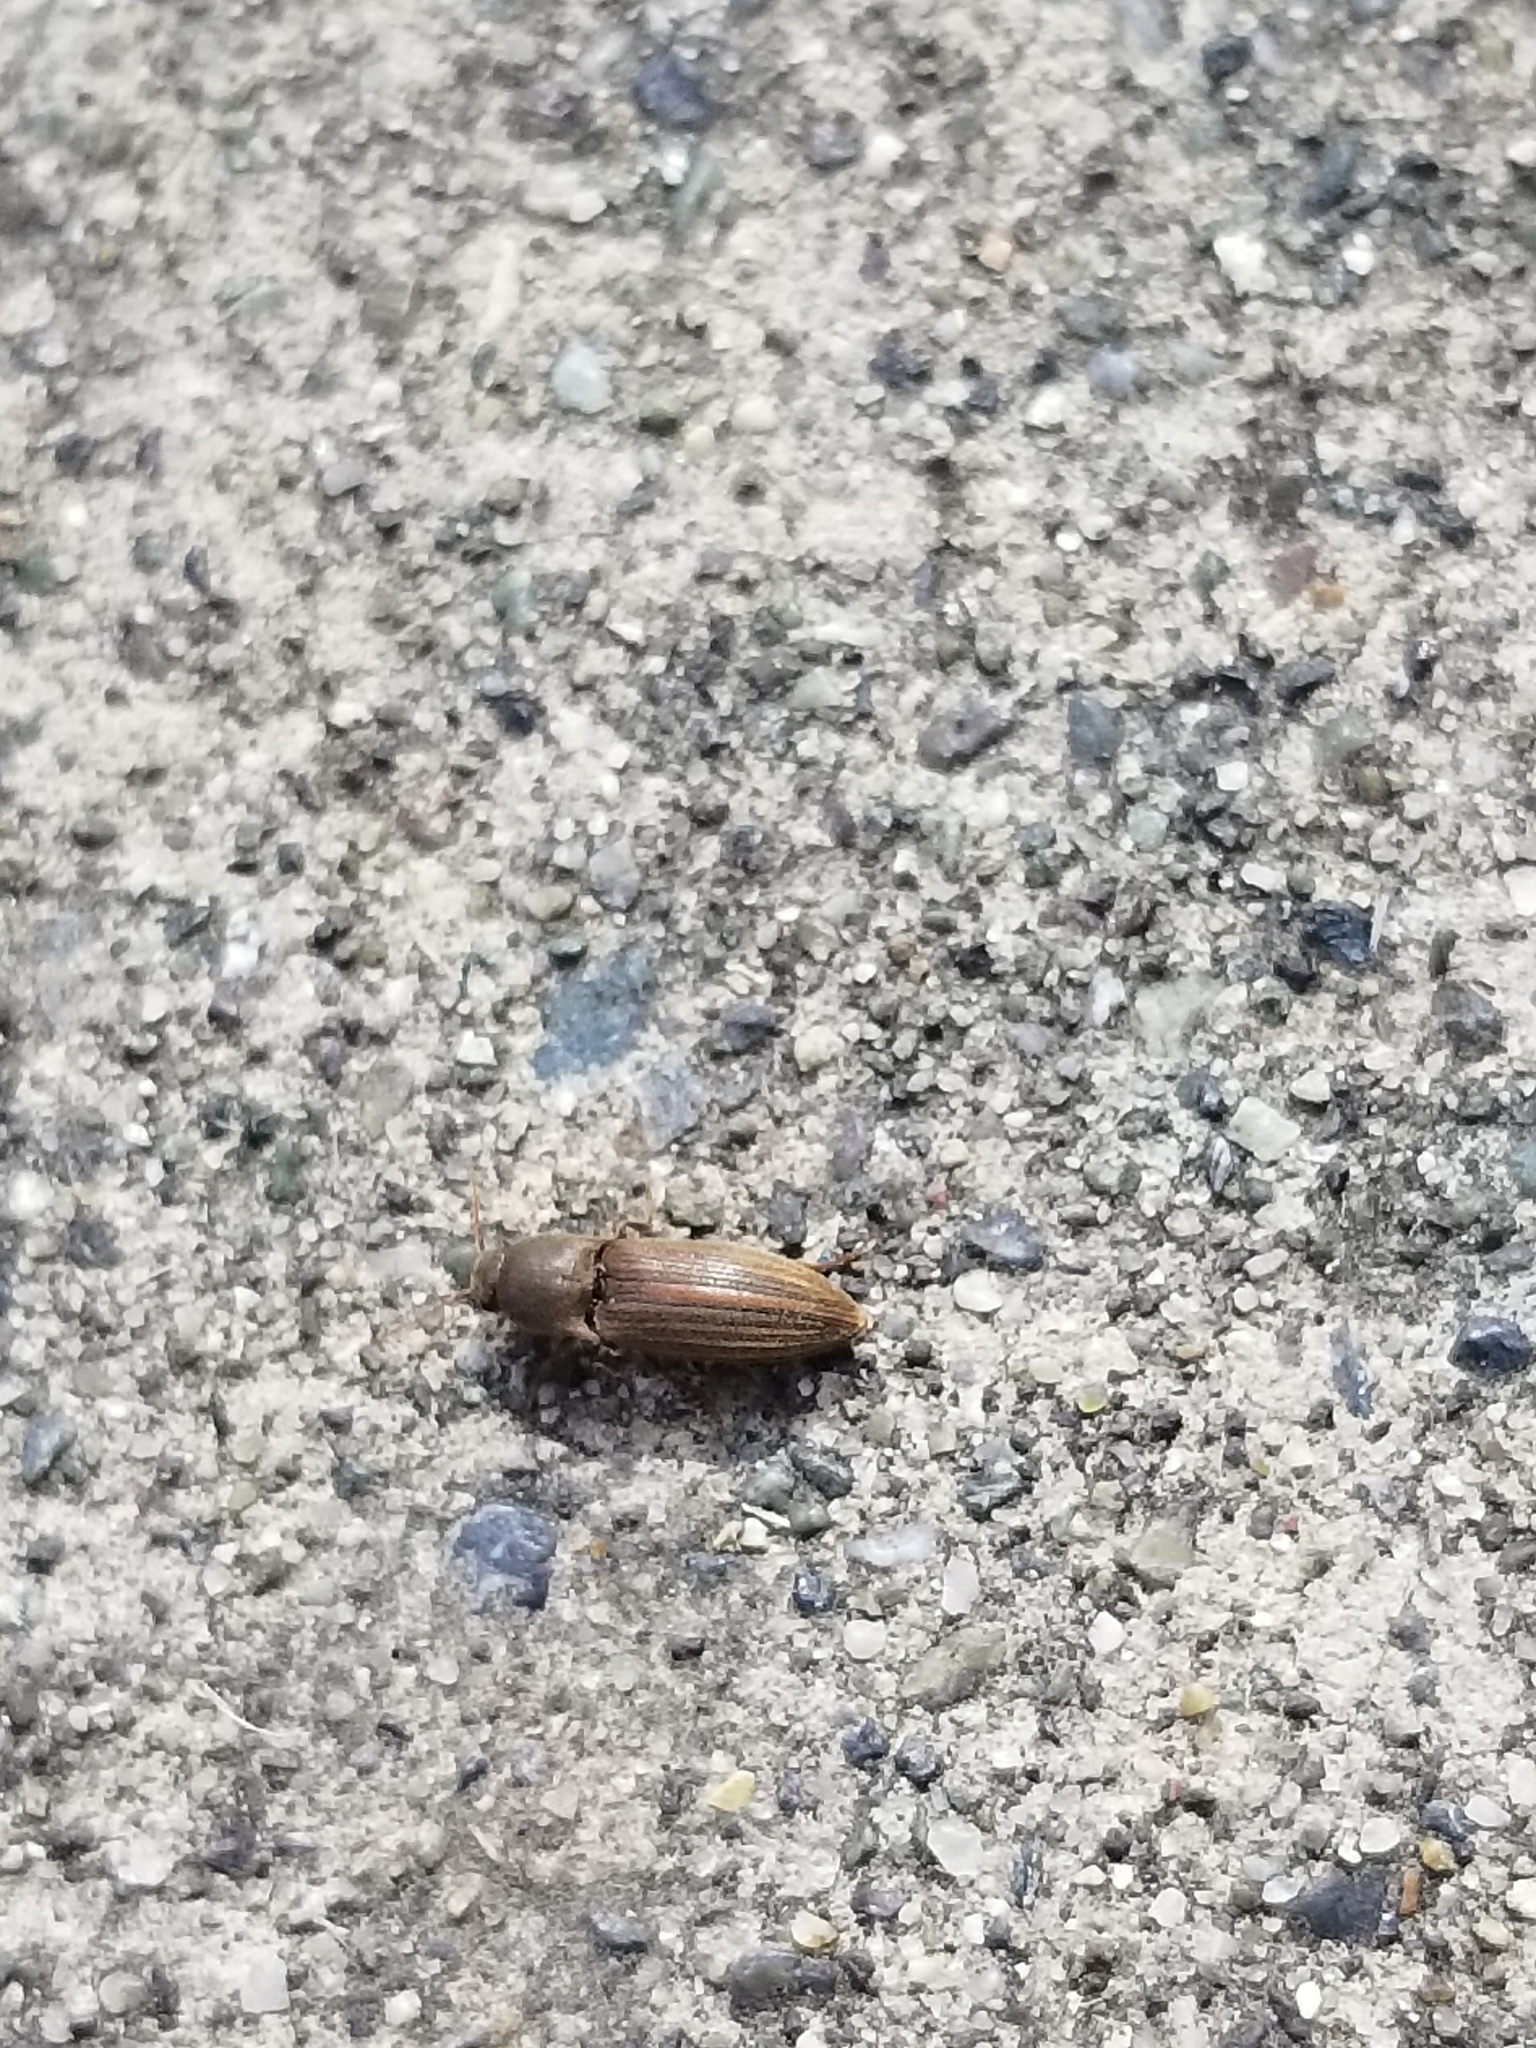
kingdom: Animalia
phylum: Arthropoda
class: Insecta
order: Coleoptera
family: Elateridae
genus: Agriotes
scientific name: Agriotes lineatus
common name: Lined click beetle
